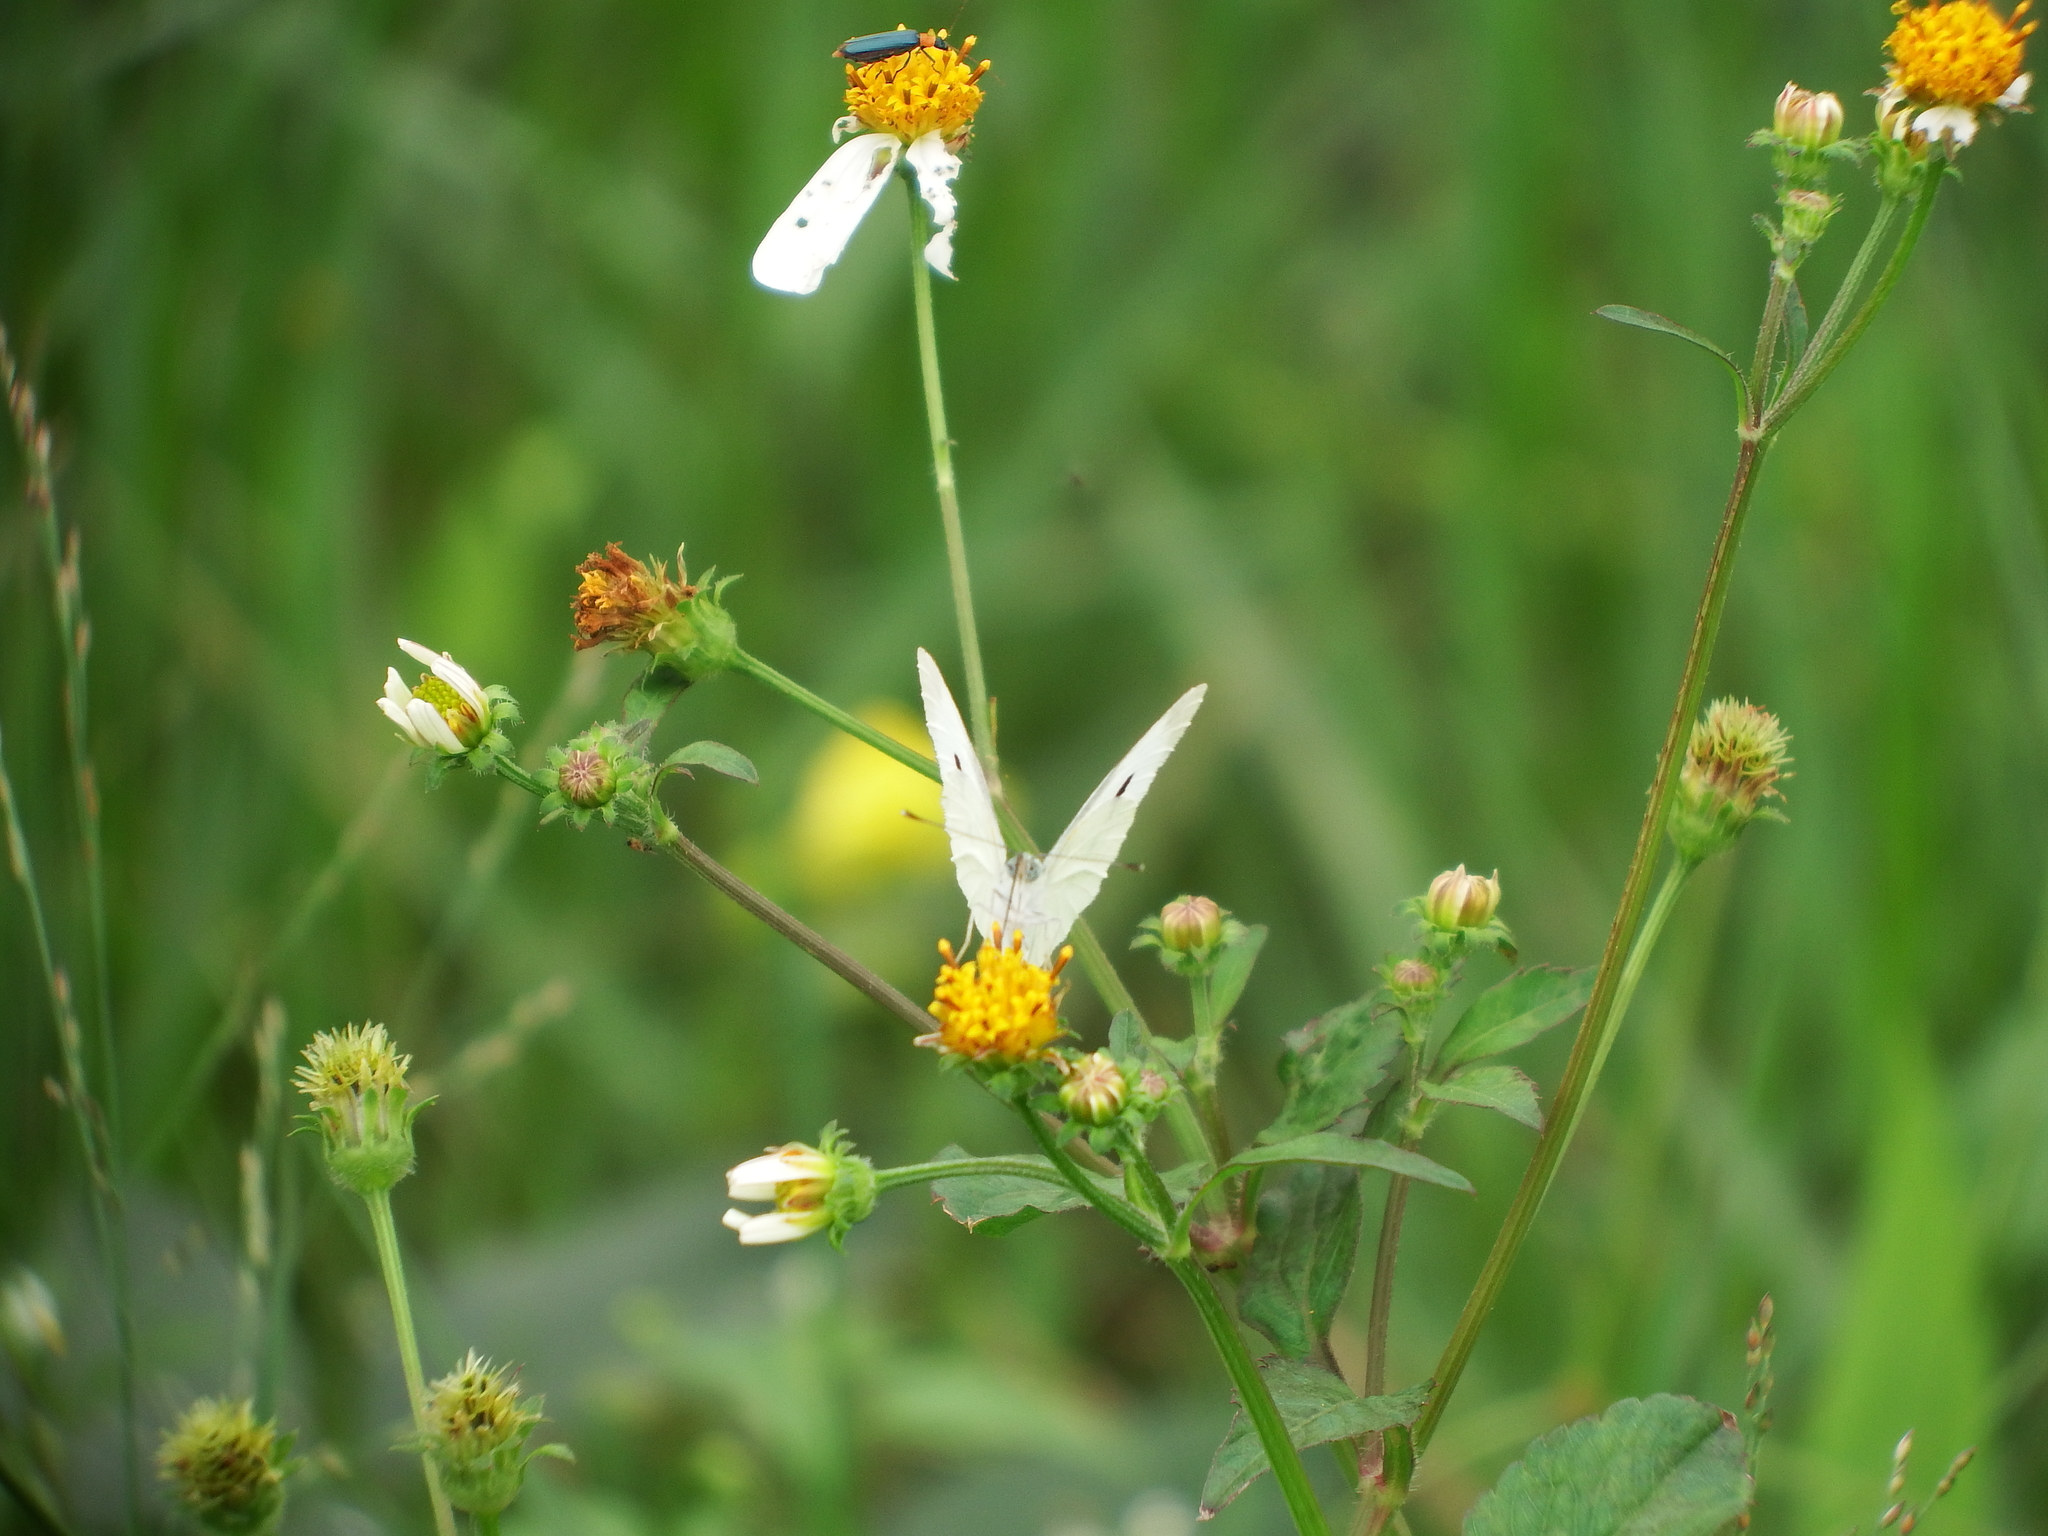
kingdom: Animalia
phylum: Arthropoda
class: Insecta
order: Lepidoptera
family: Pieridae
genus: Pieris
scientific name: Pieris rapae
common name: Small white
